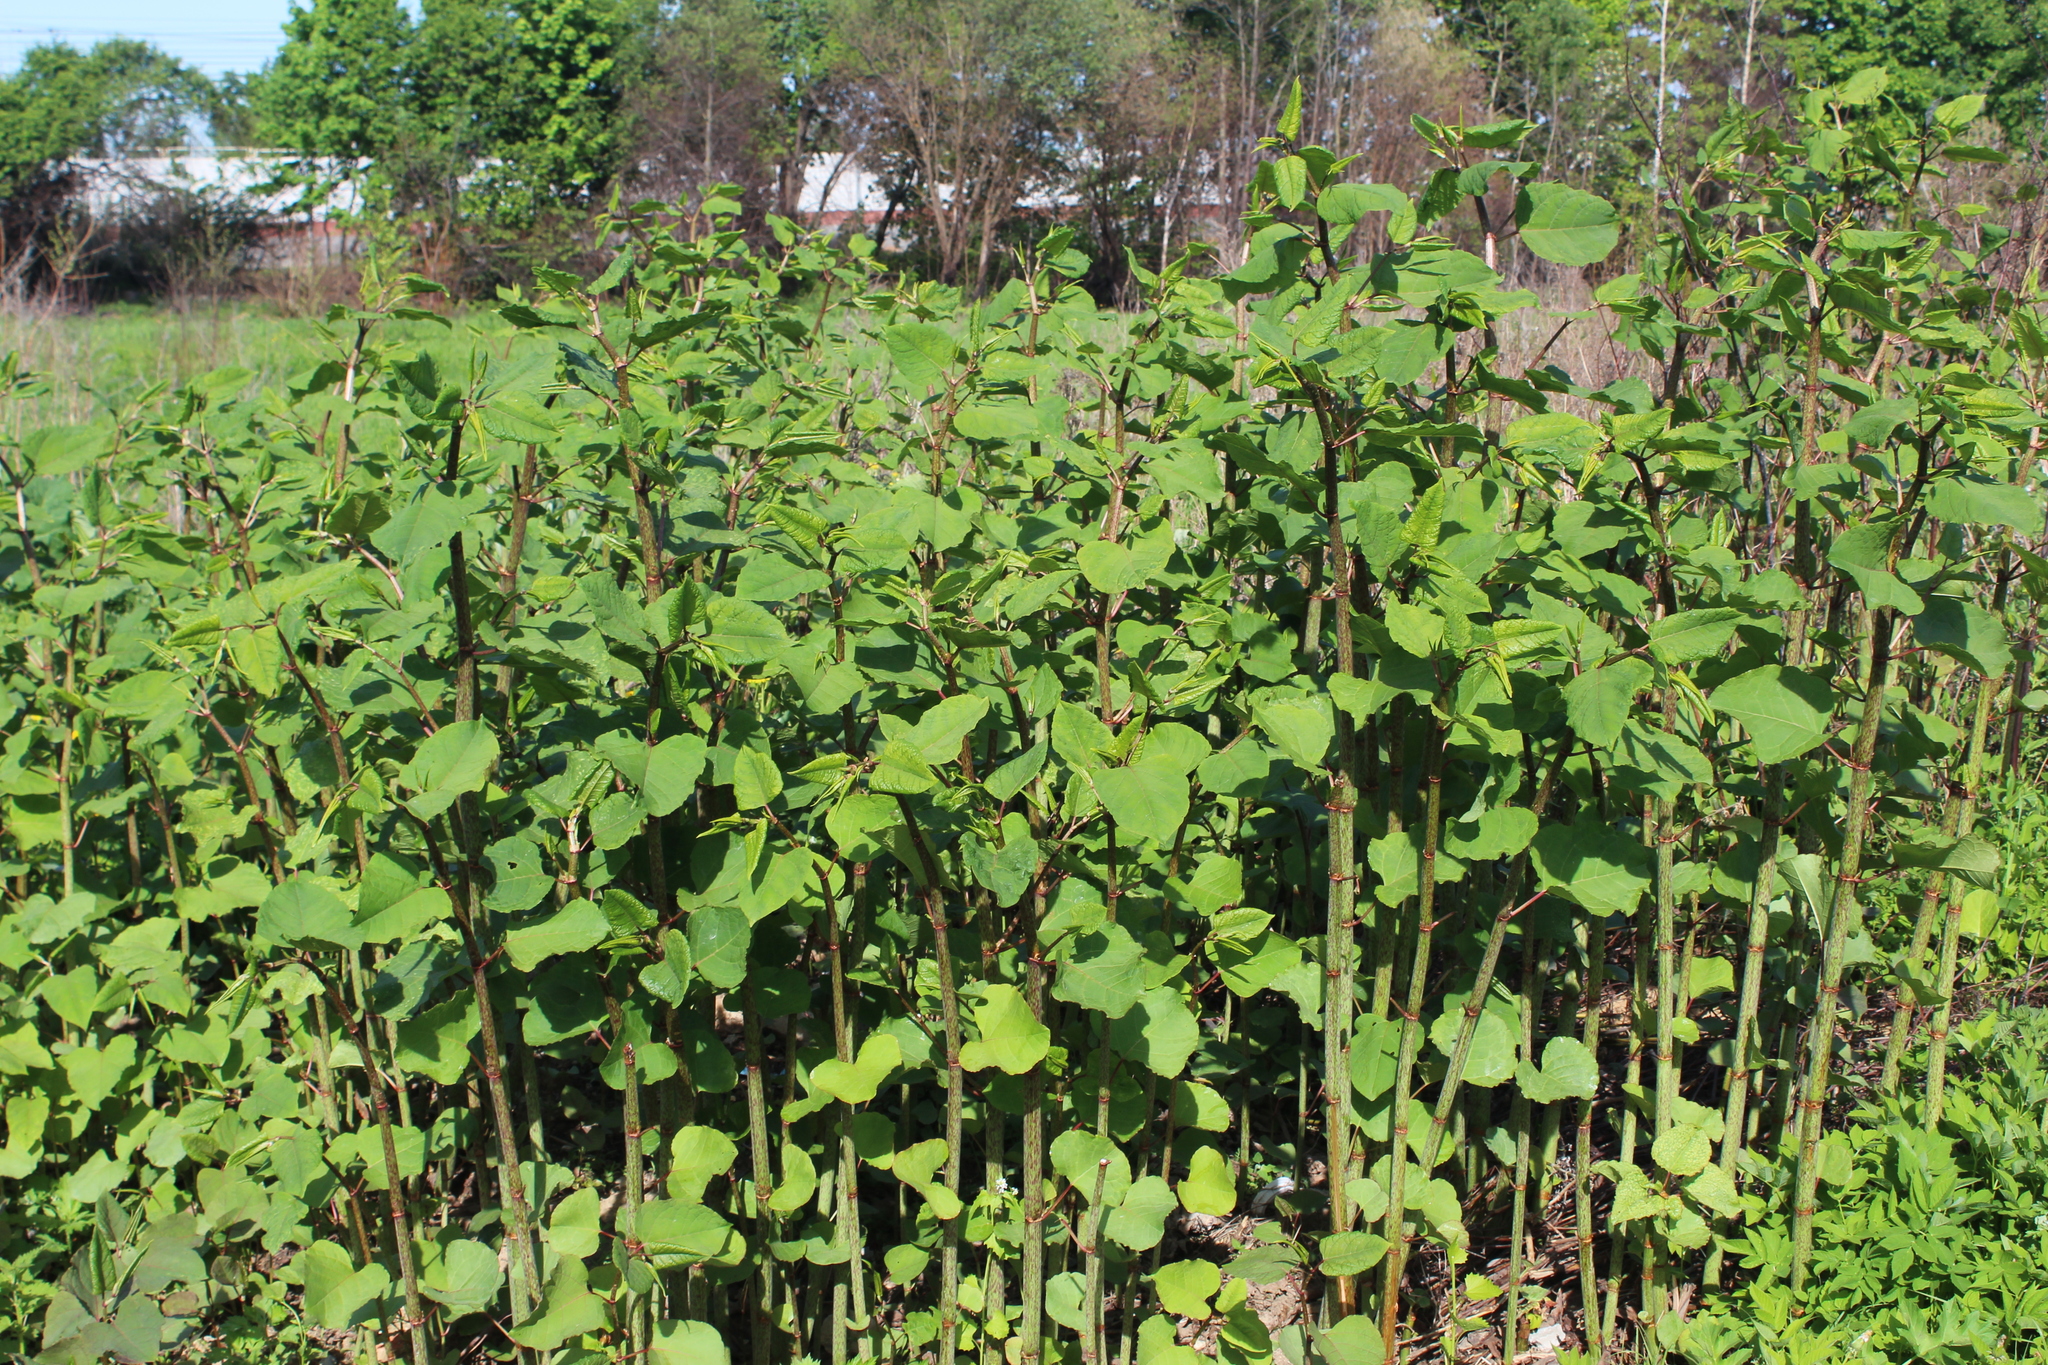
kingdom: Plantae
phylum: Tracheophyta
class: Magnoliopsida
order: Caryophyllales
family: Polygonaceae
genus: Reynoutria
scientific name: Reynoutria bohemica
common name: Bohemian knotweed
